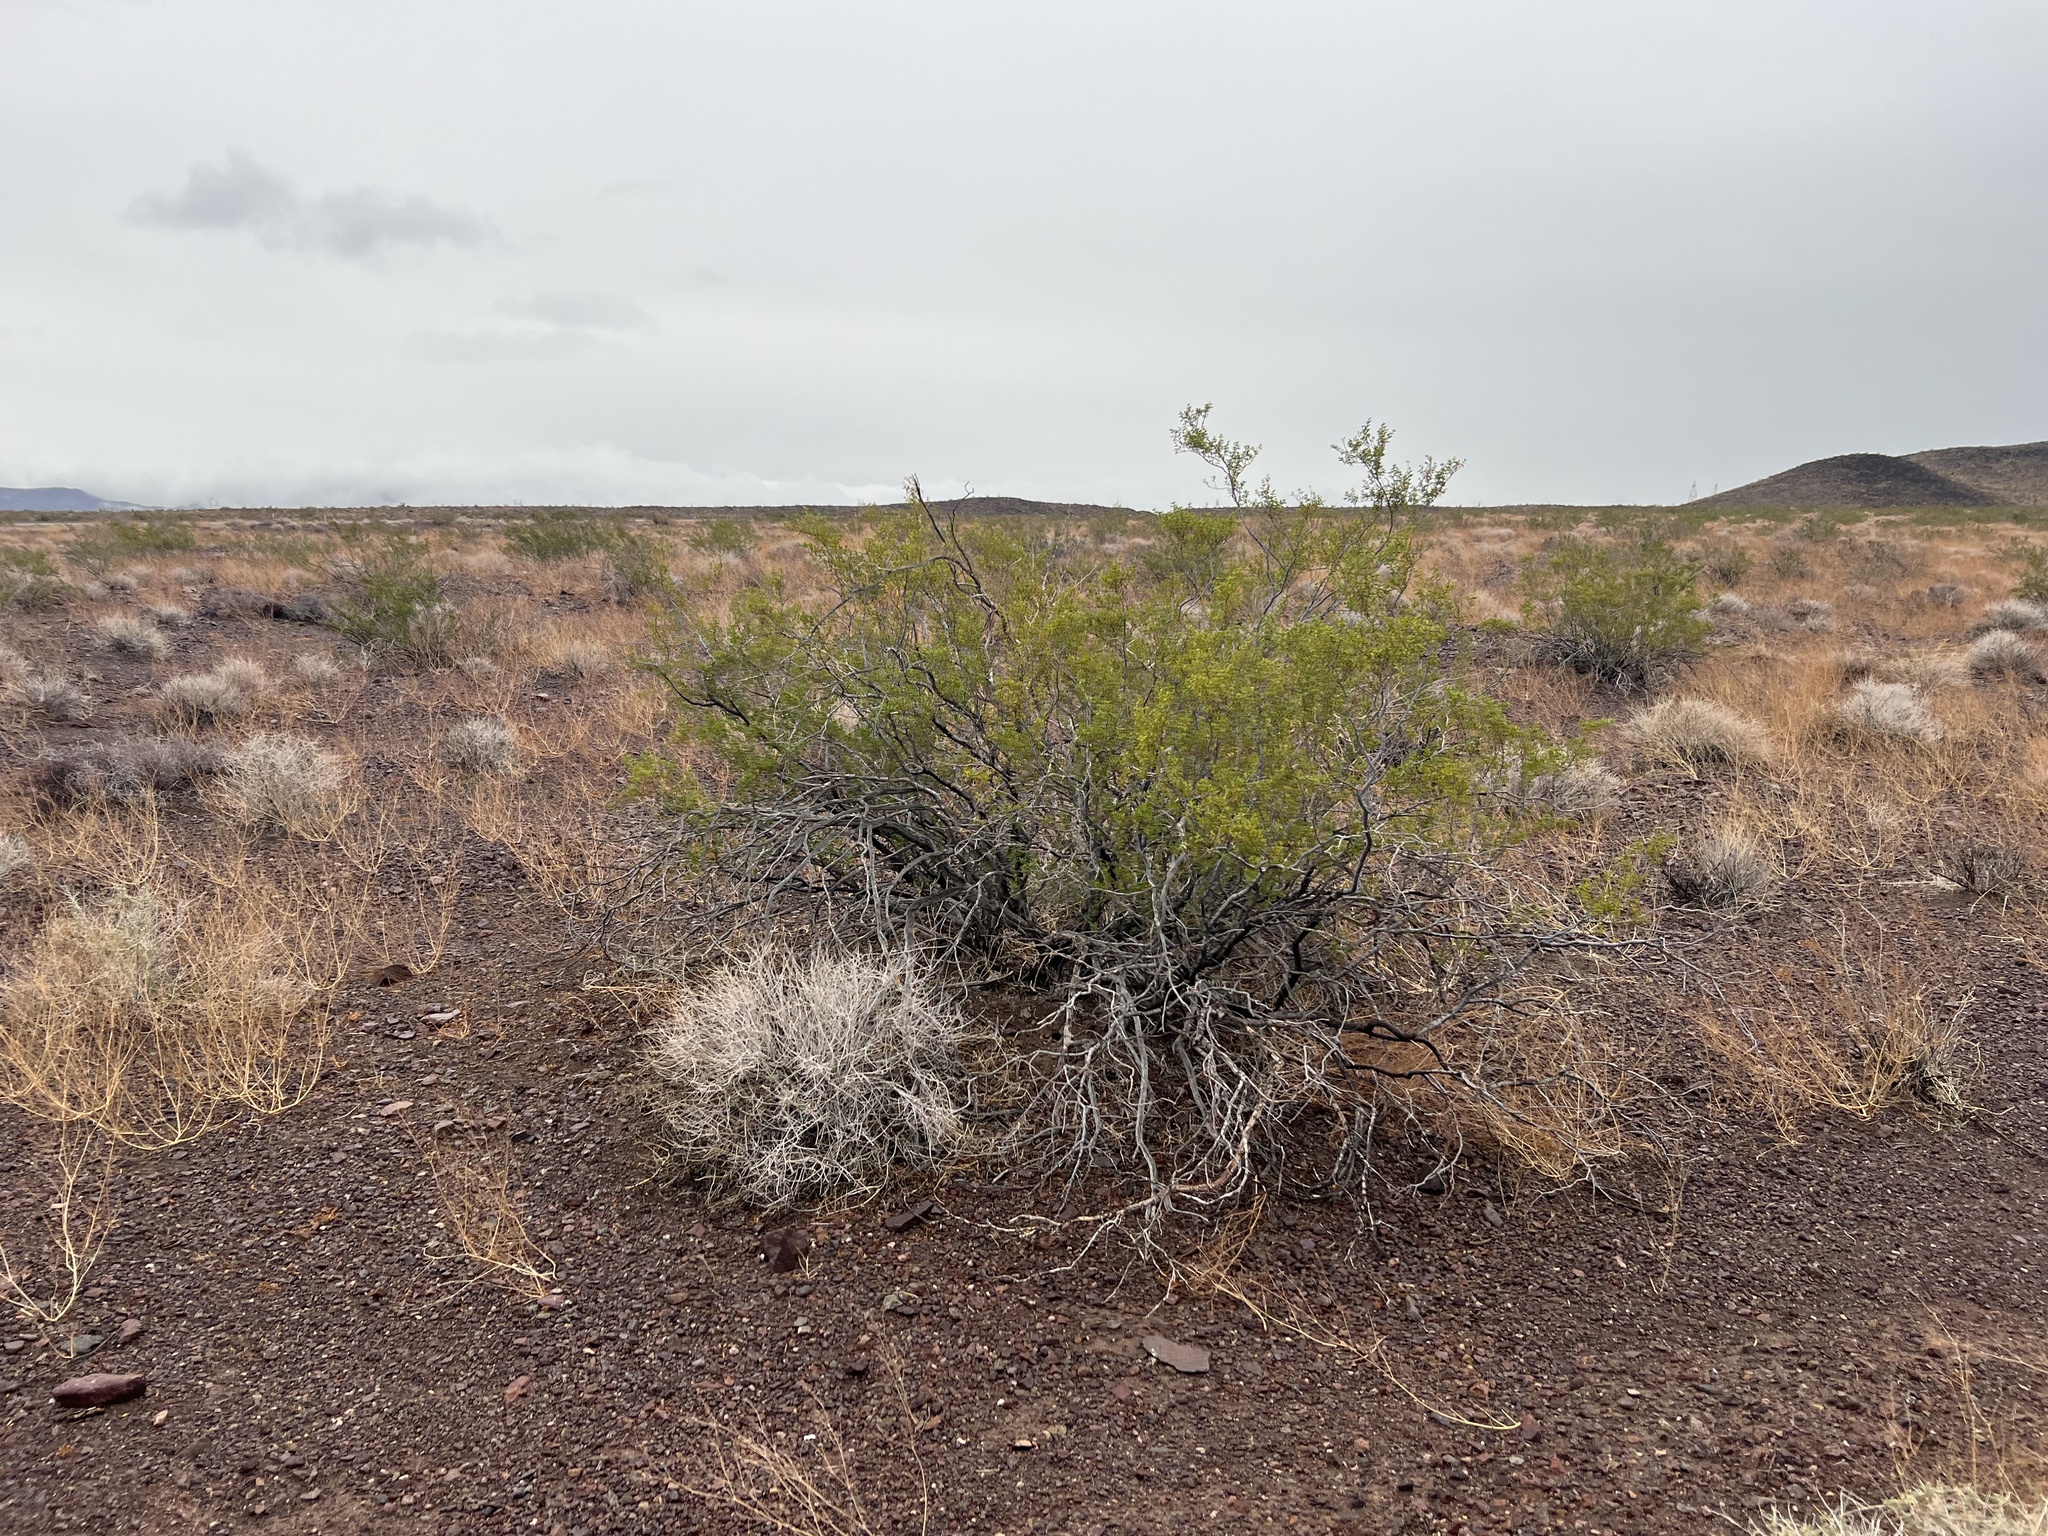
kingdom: Plantae
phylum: Tracheophyta
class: Magnoliopsida
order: Zygophyllales
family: Zygophyllaceae
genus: Larrea
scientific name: Larrea tridentata
